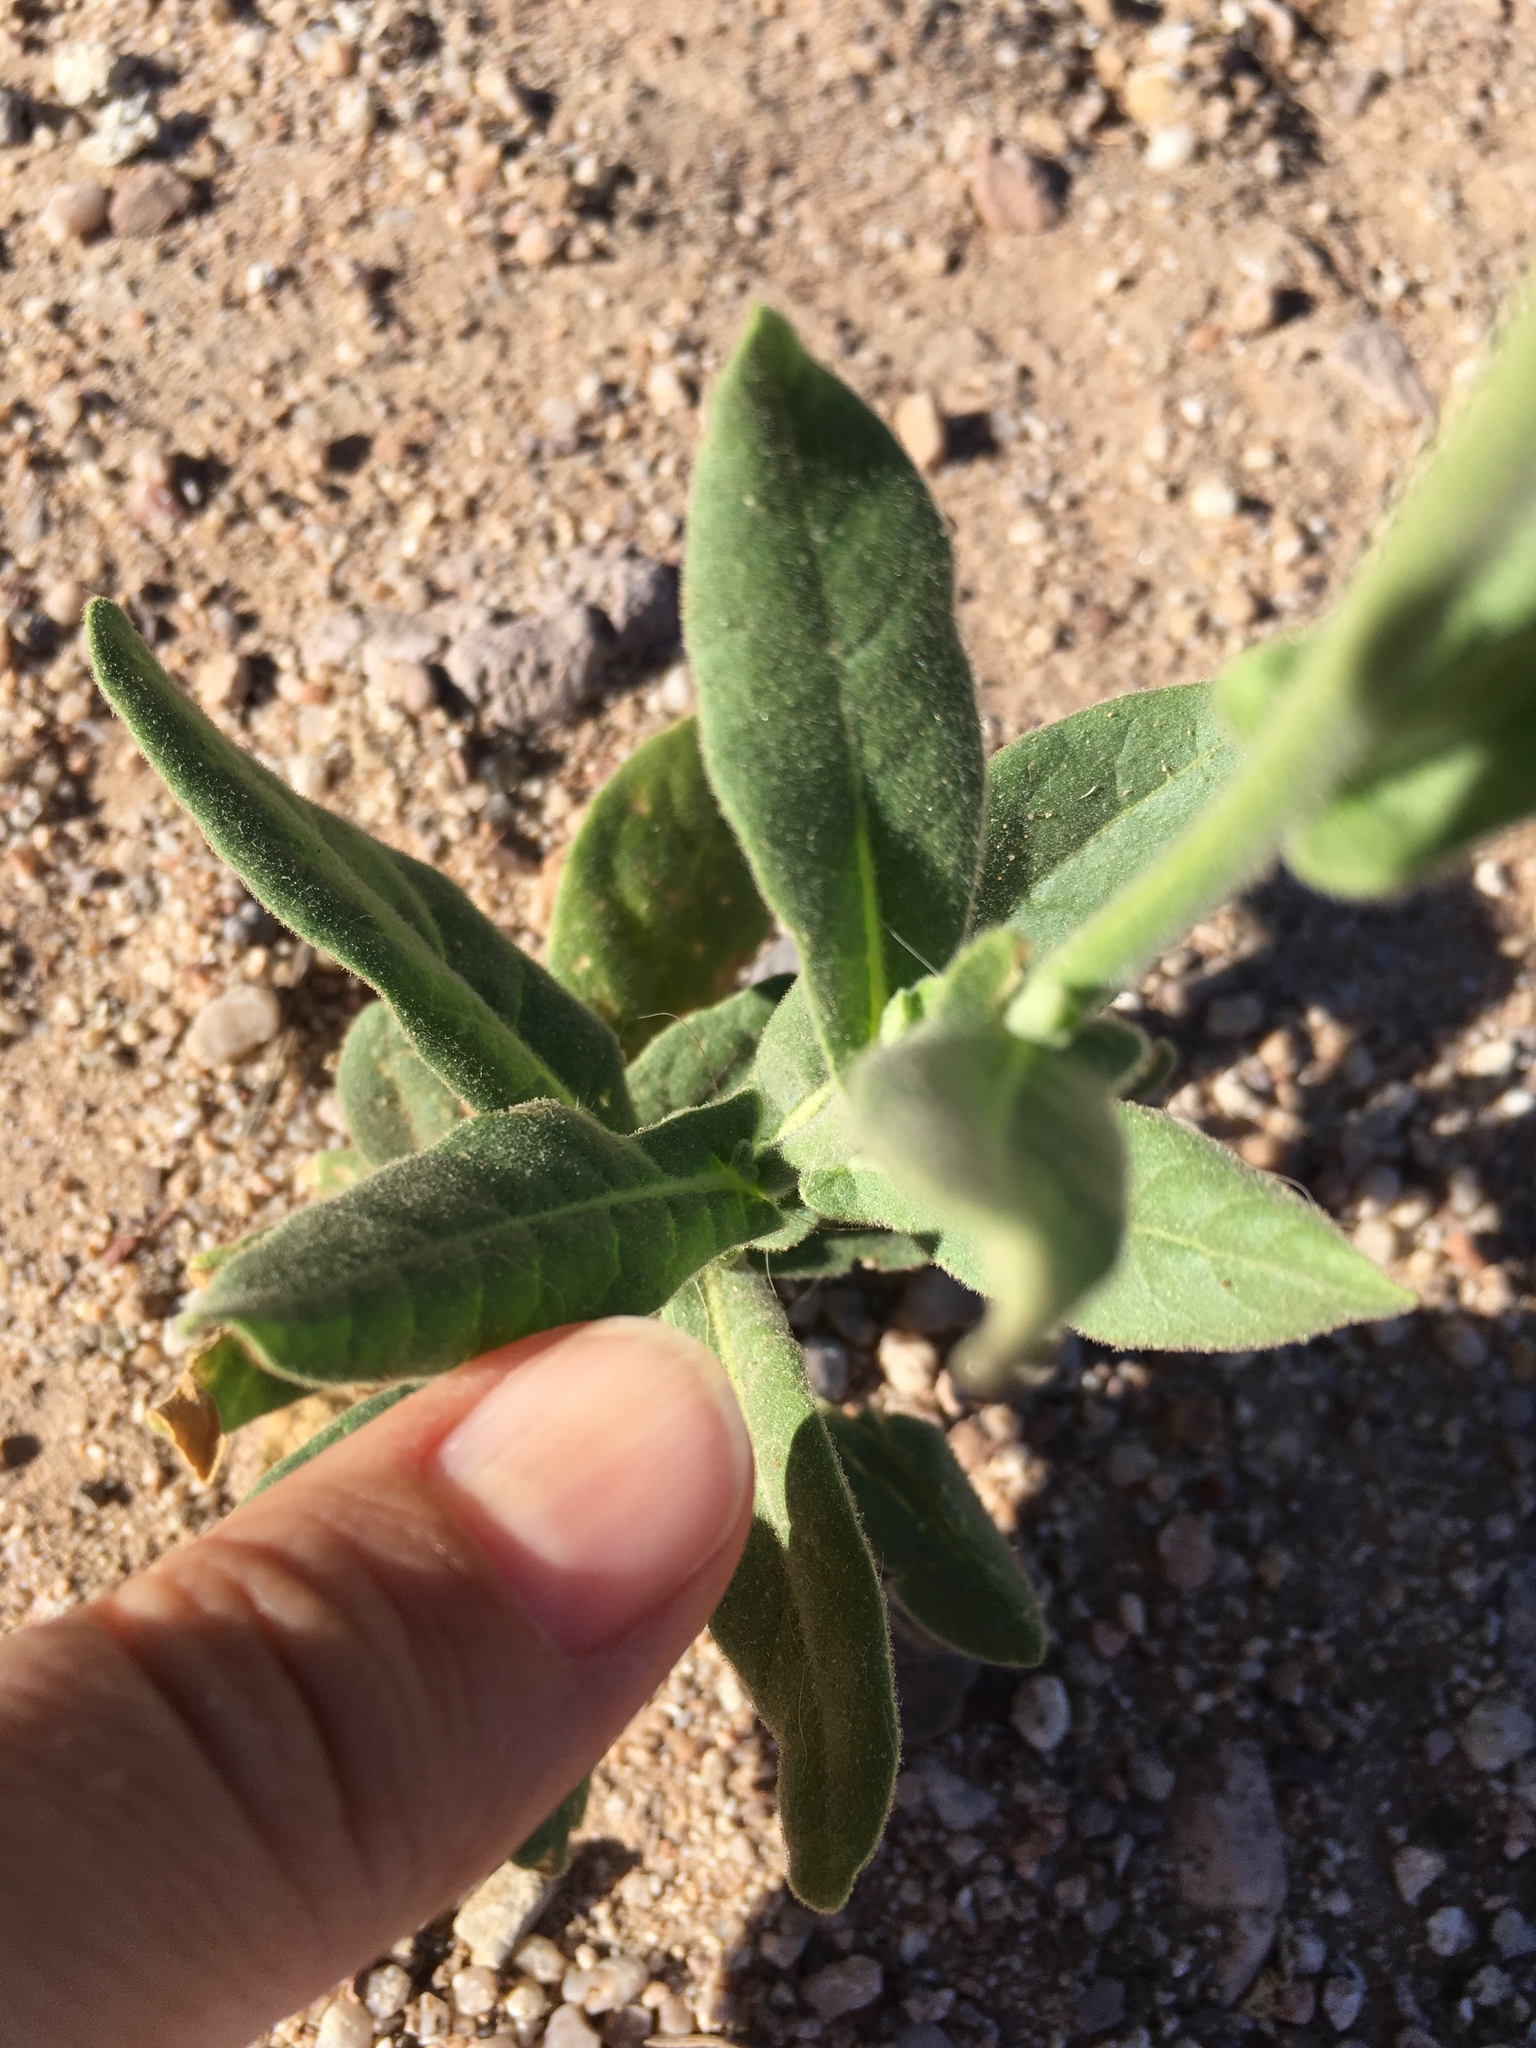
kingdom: Plantae
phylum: Tracheophyta
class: Magnoliopsida
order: Solanales
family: Solanaceae
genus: Nicotiana
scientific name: Nicotiana obtusifolia
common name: Desert tobacco
